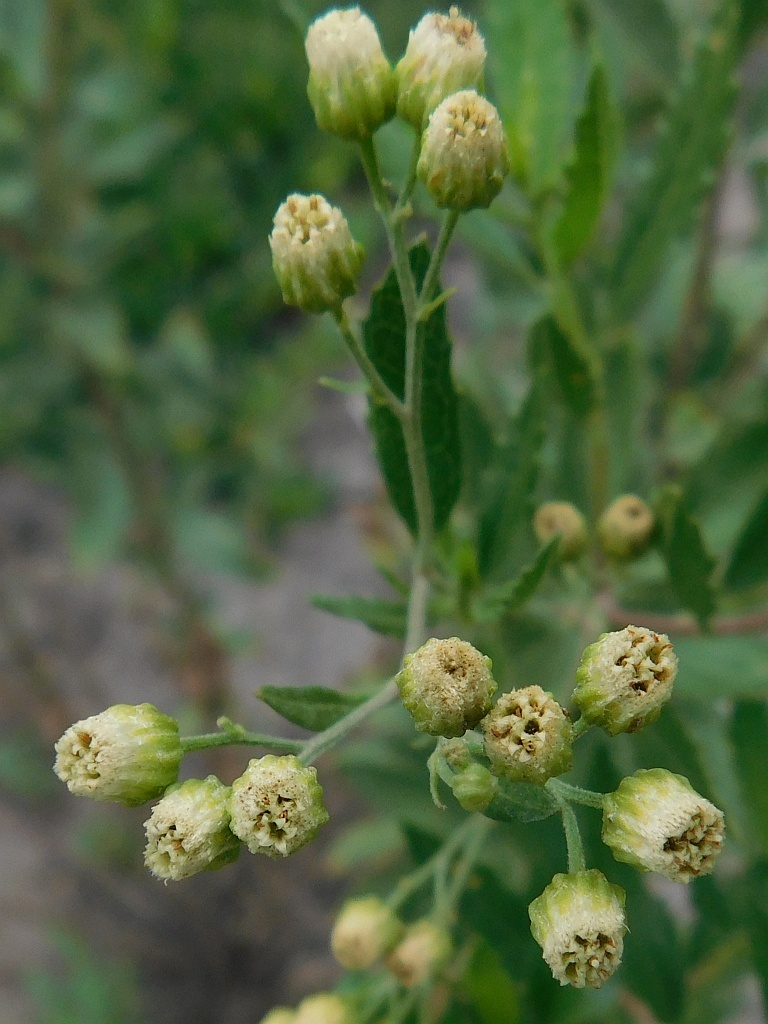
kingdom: Plantae
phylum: Tracheophyta
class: Magnoliopsida
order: Asterales
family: Asteraceae
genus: Nidorella
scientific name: Nidorella ivifolia
